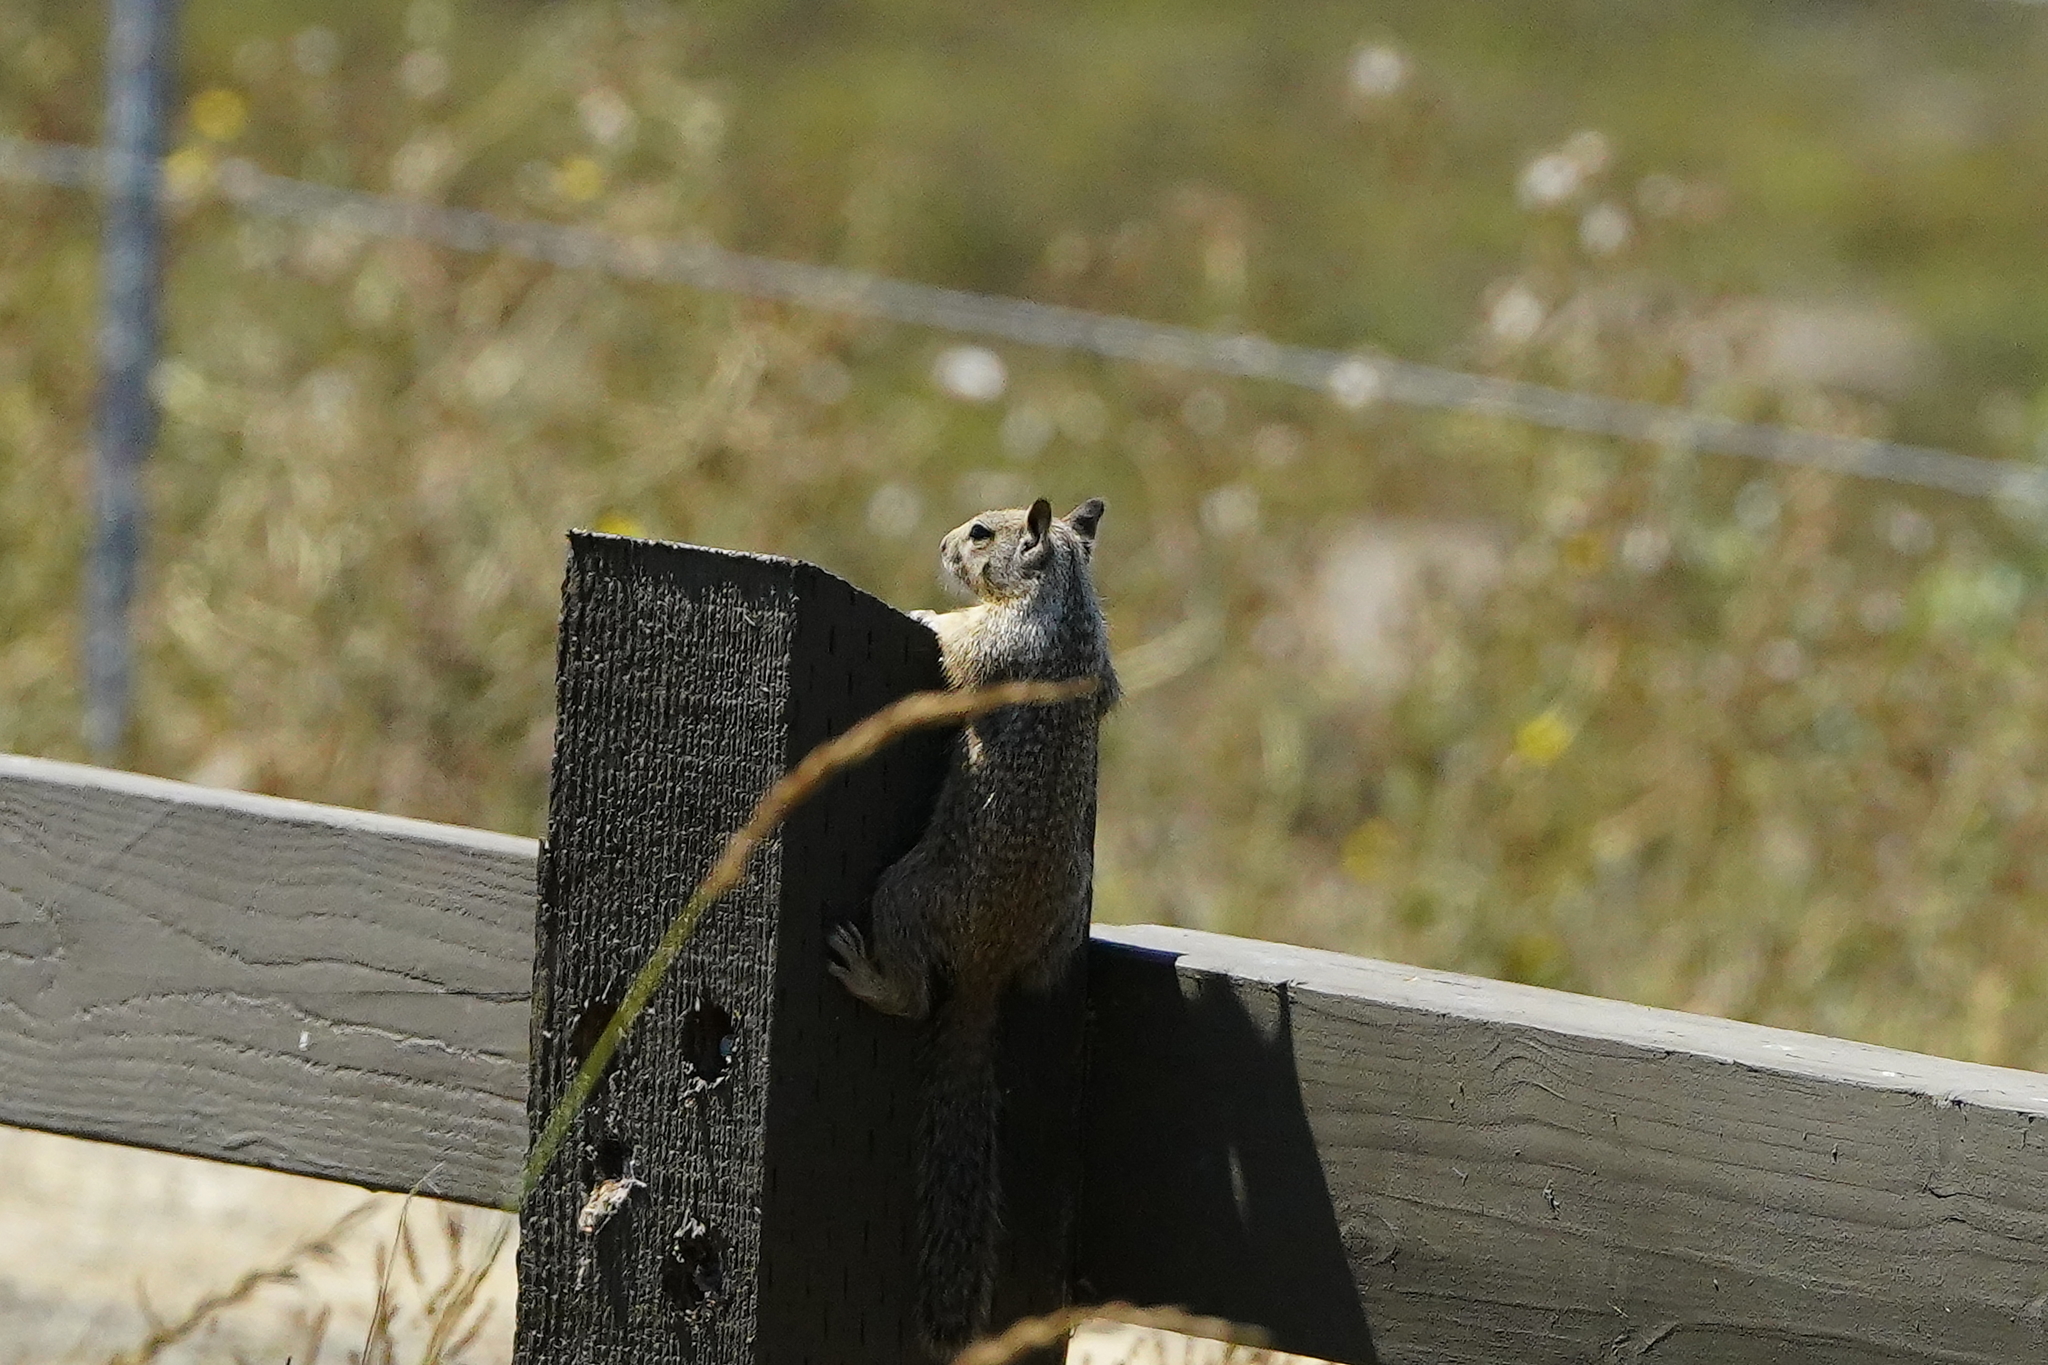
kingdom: Animalia
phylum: Chordata
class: Mammalia
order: Rodentia
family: Sciuridae
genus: Otospermophilus
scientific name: Otospermophilus beecheyi
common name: California ground squirrel
